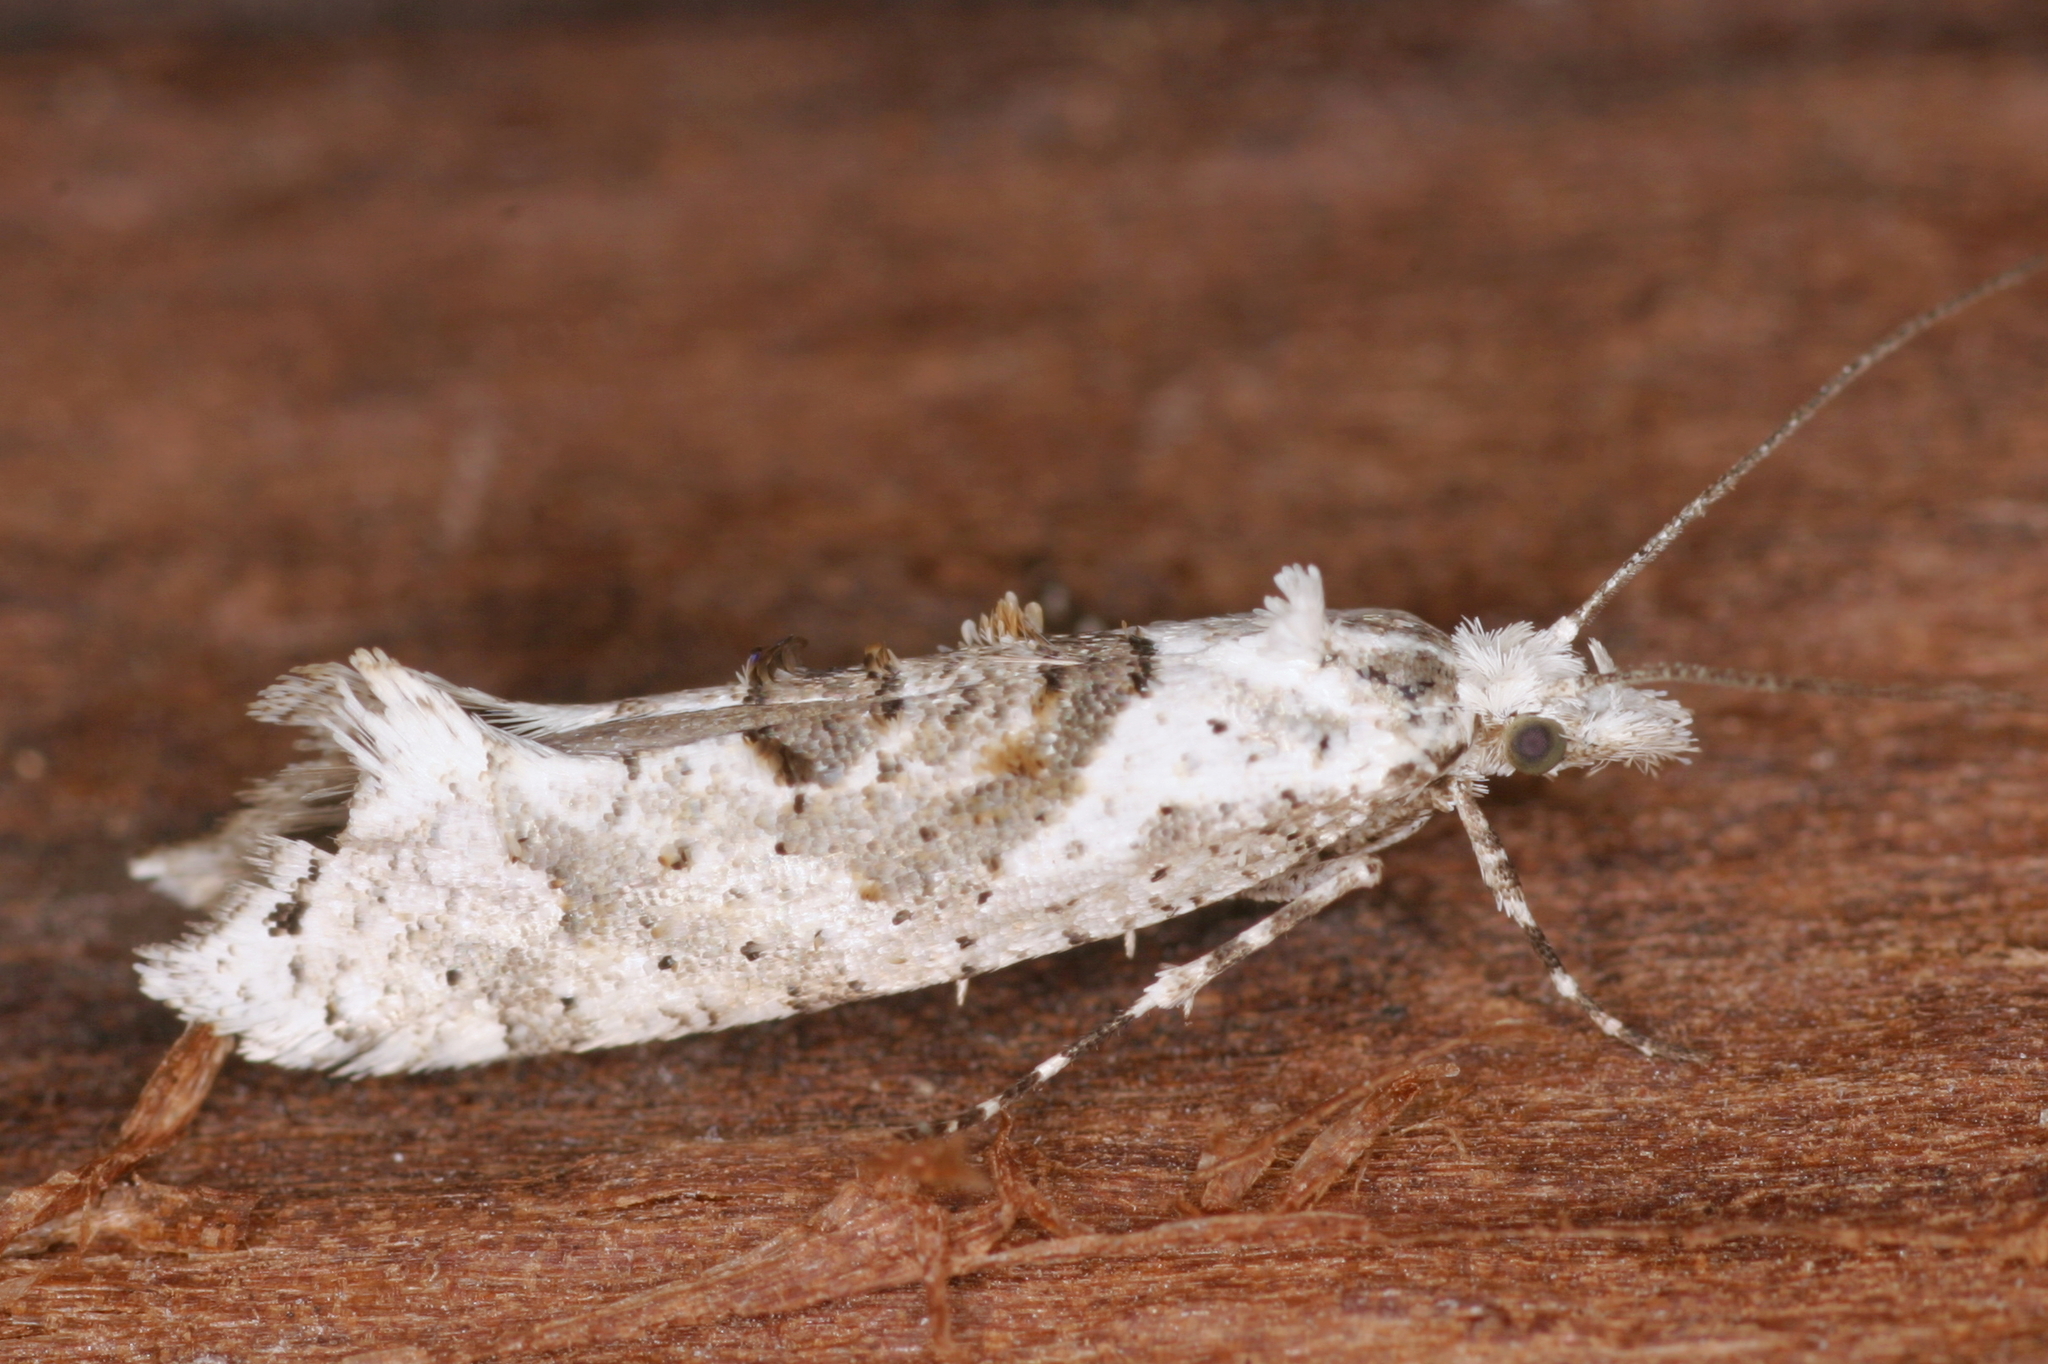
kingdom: Animalia
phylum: Arthropoda
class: Insecta
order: Lepidoptera
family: Plutellidae
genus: Ypsolophus
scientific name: Ypsolophus asperella
